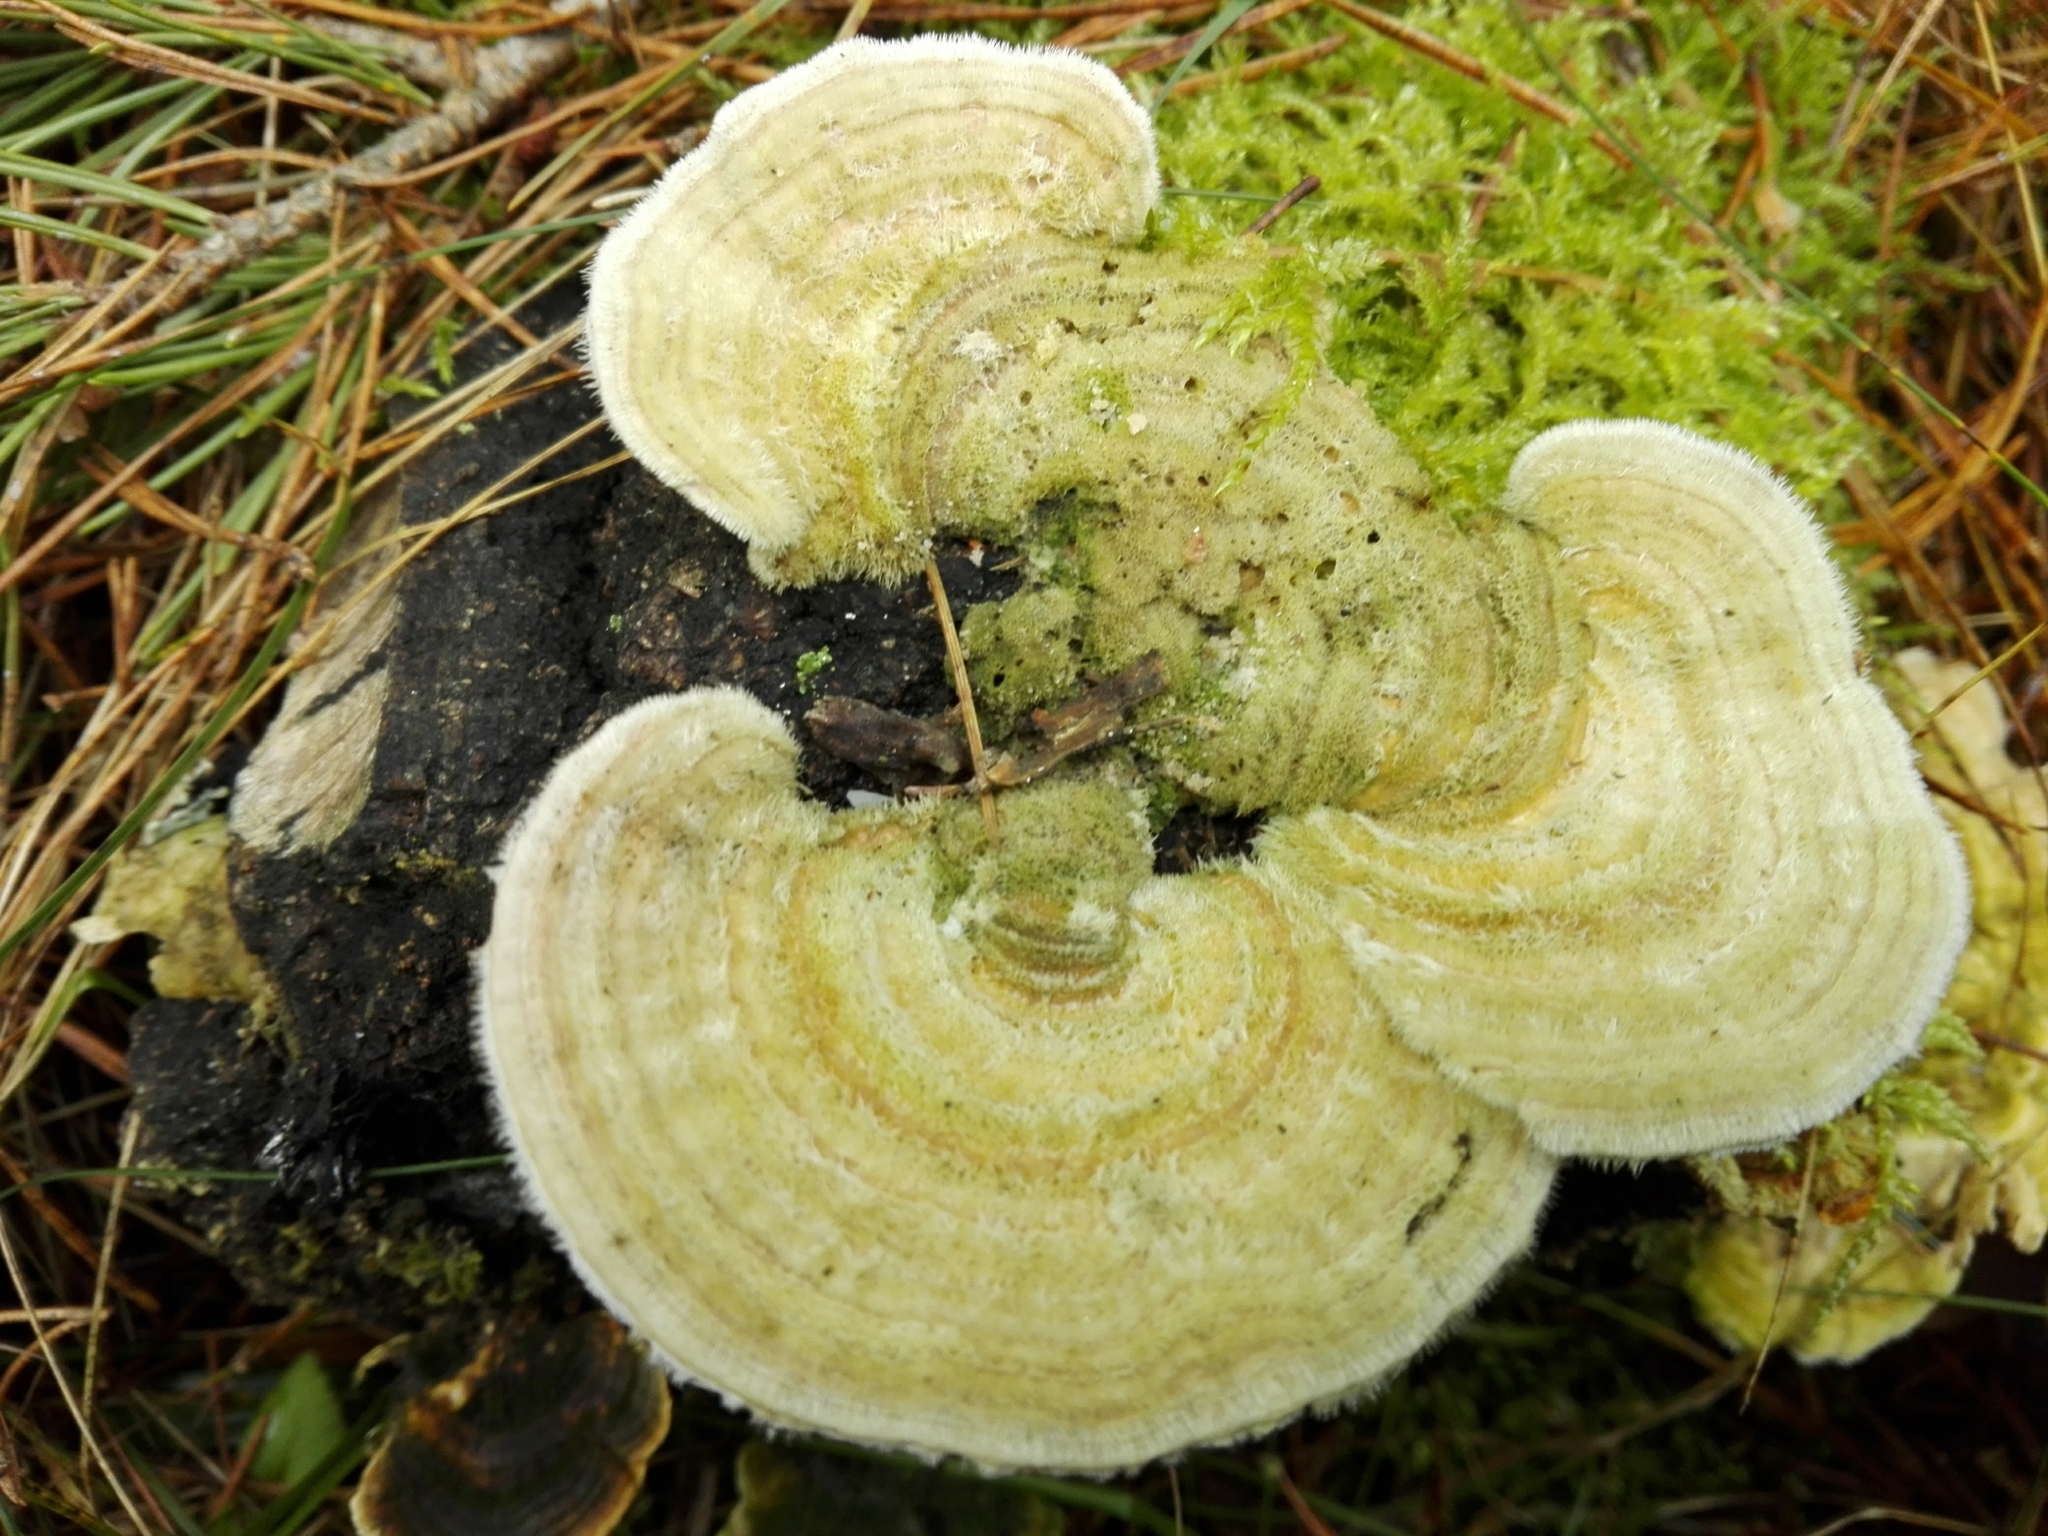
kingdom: Fungi
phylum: Basidiomycota
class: Agaricomycetes
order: Polyporales
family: Polyporaceae
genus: Trametes
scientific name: Trametes hirsuta
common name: Hairy bracket
